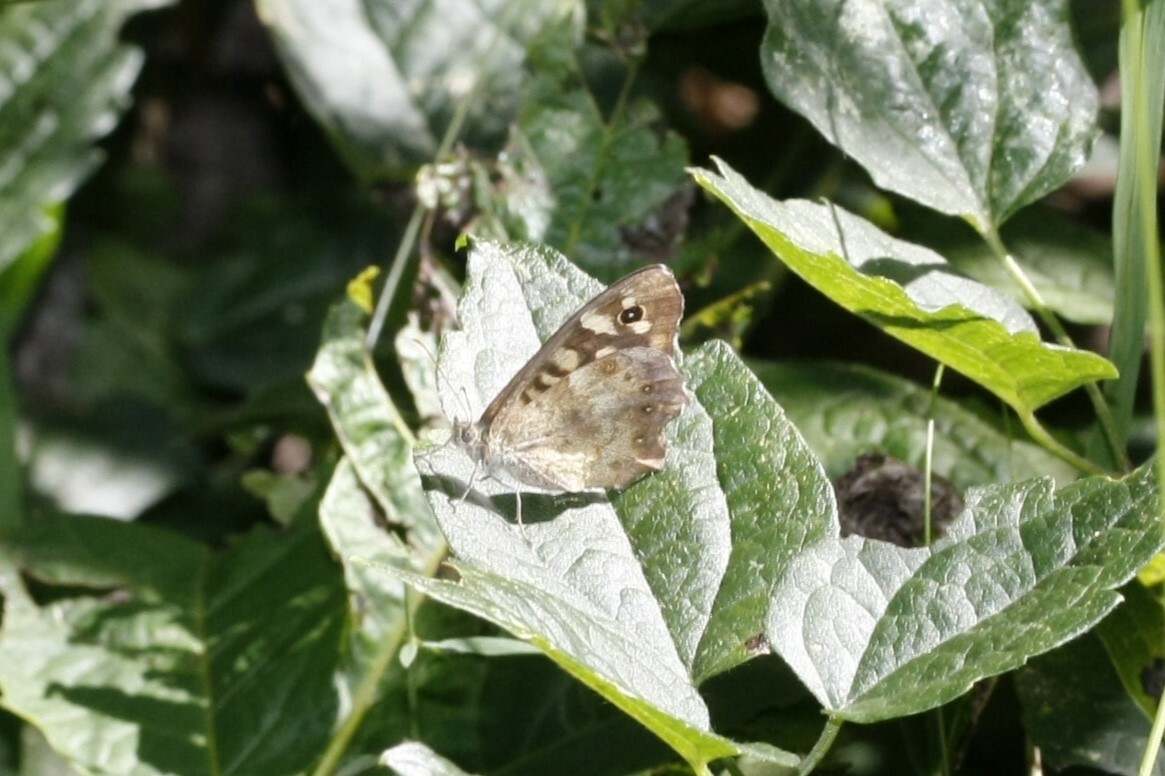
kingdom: Animalia
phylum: Arthropoda
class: Insecta
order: Lepidoptera
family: Nymphalidae
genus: Pararge
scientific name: Pararge aegeria
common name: Speckled wood
